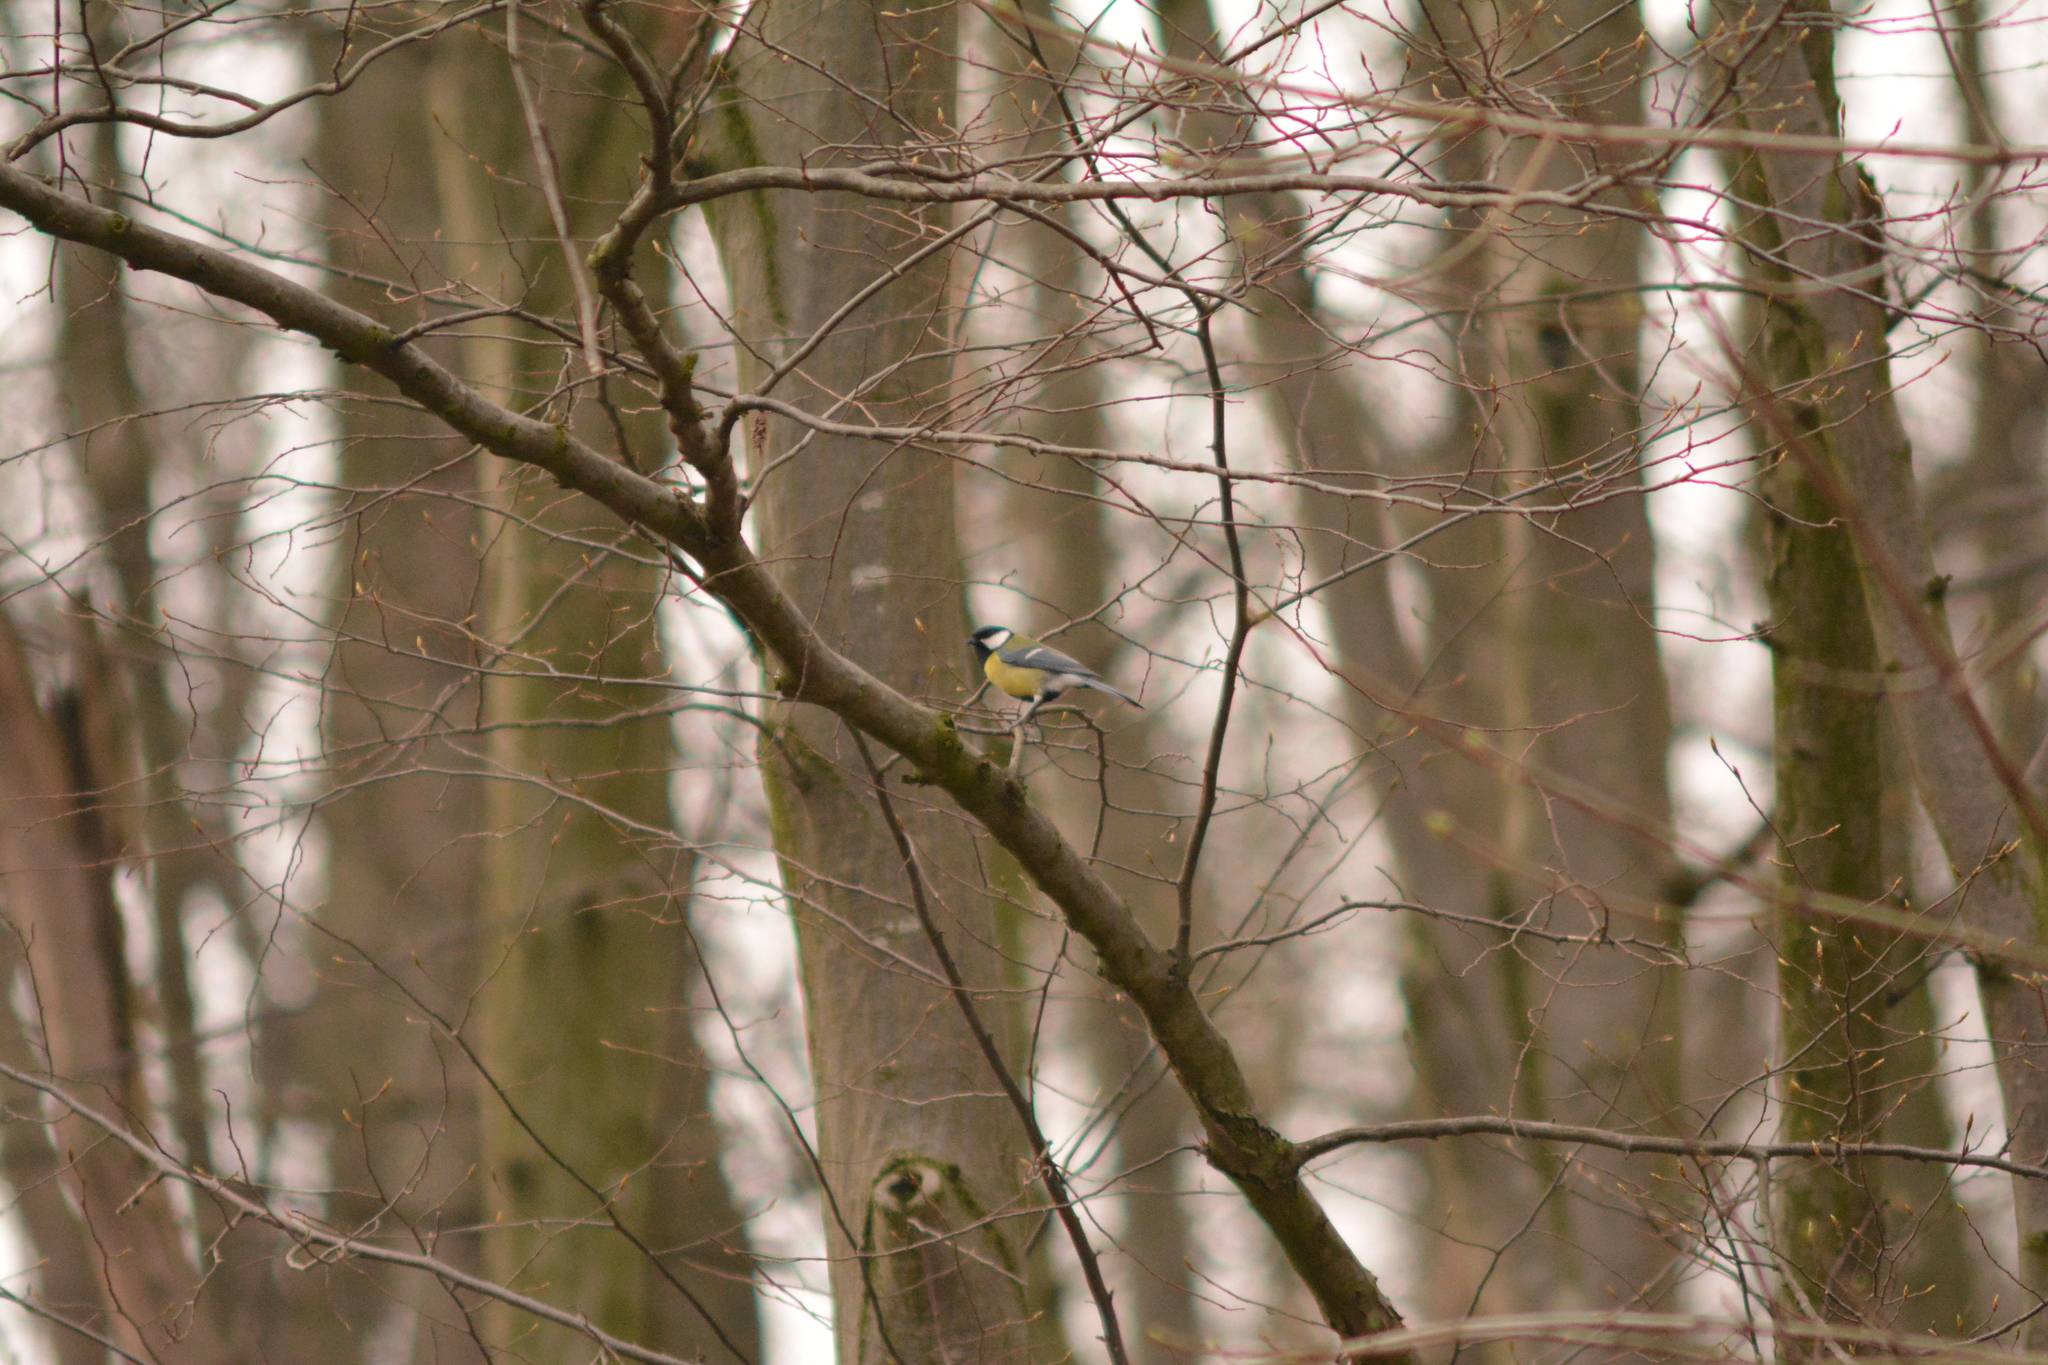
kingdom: Animalia
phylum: Chordata
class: Aves
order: Passeriformes
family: Paridae
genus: Parus
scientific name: Parus major
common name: Great tit
